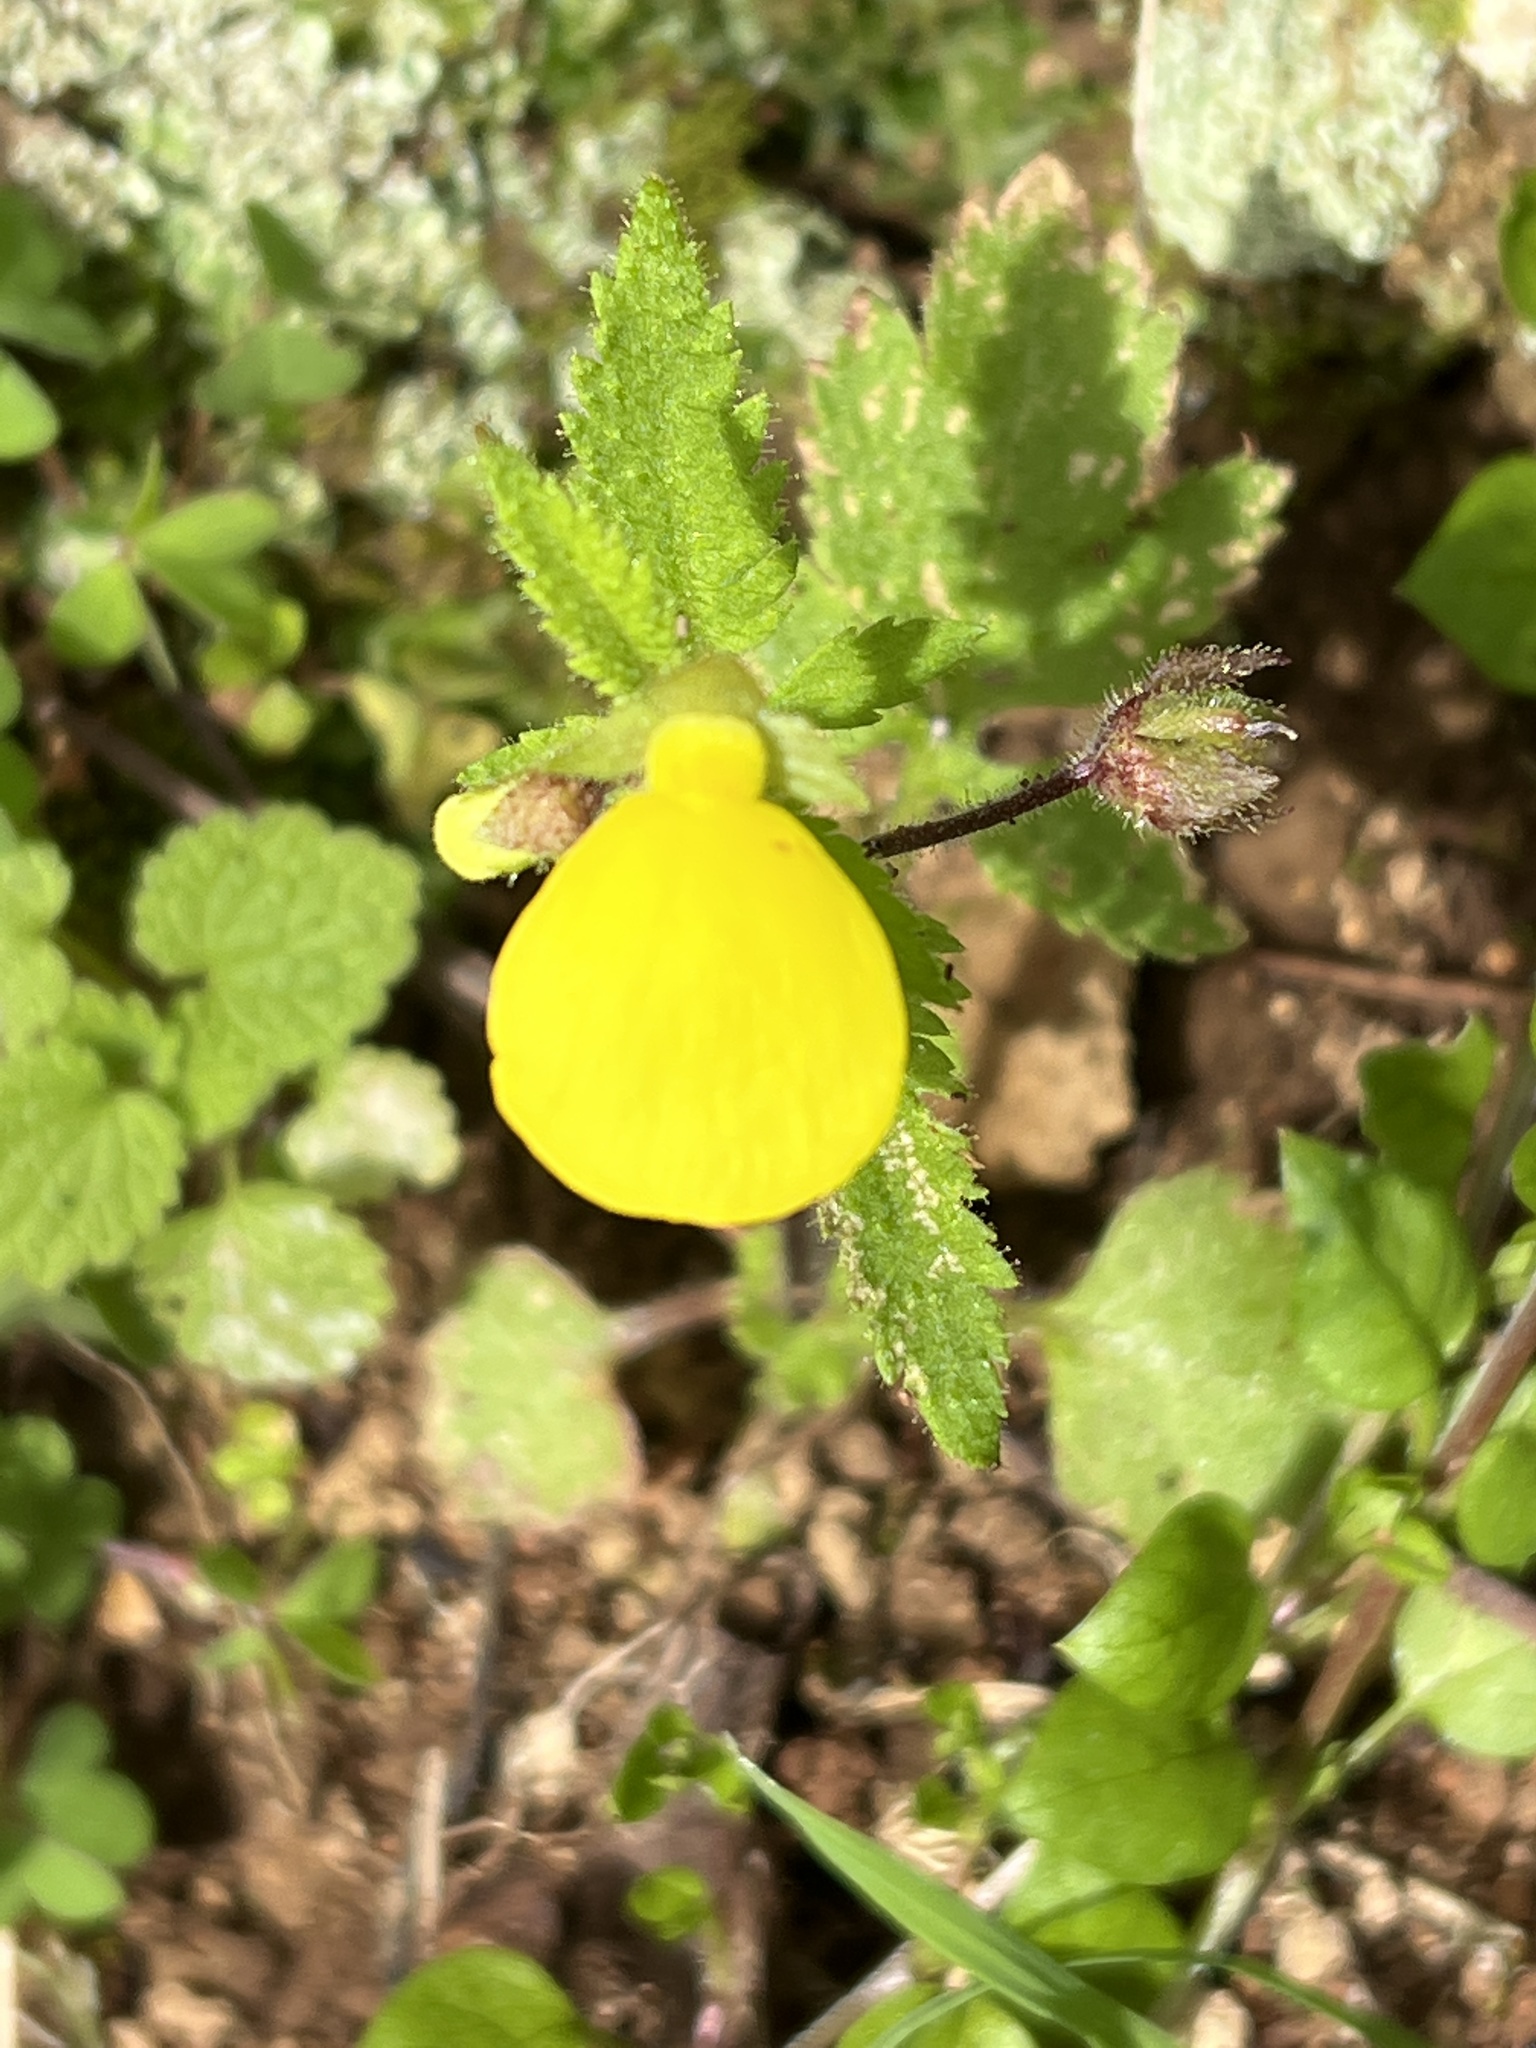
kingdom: Plantae
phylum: Tracheophyta
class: Magnoliopsida
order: Lamiales
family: Calceolariaceae
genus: Calceolaria
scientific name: Calceolaria tripartita
